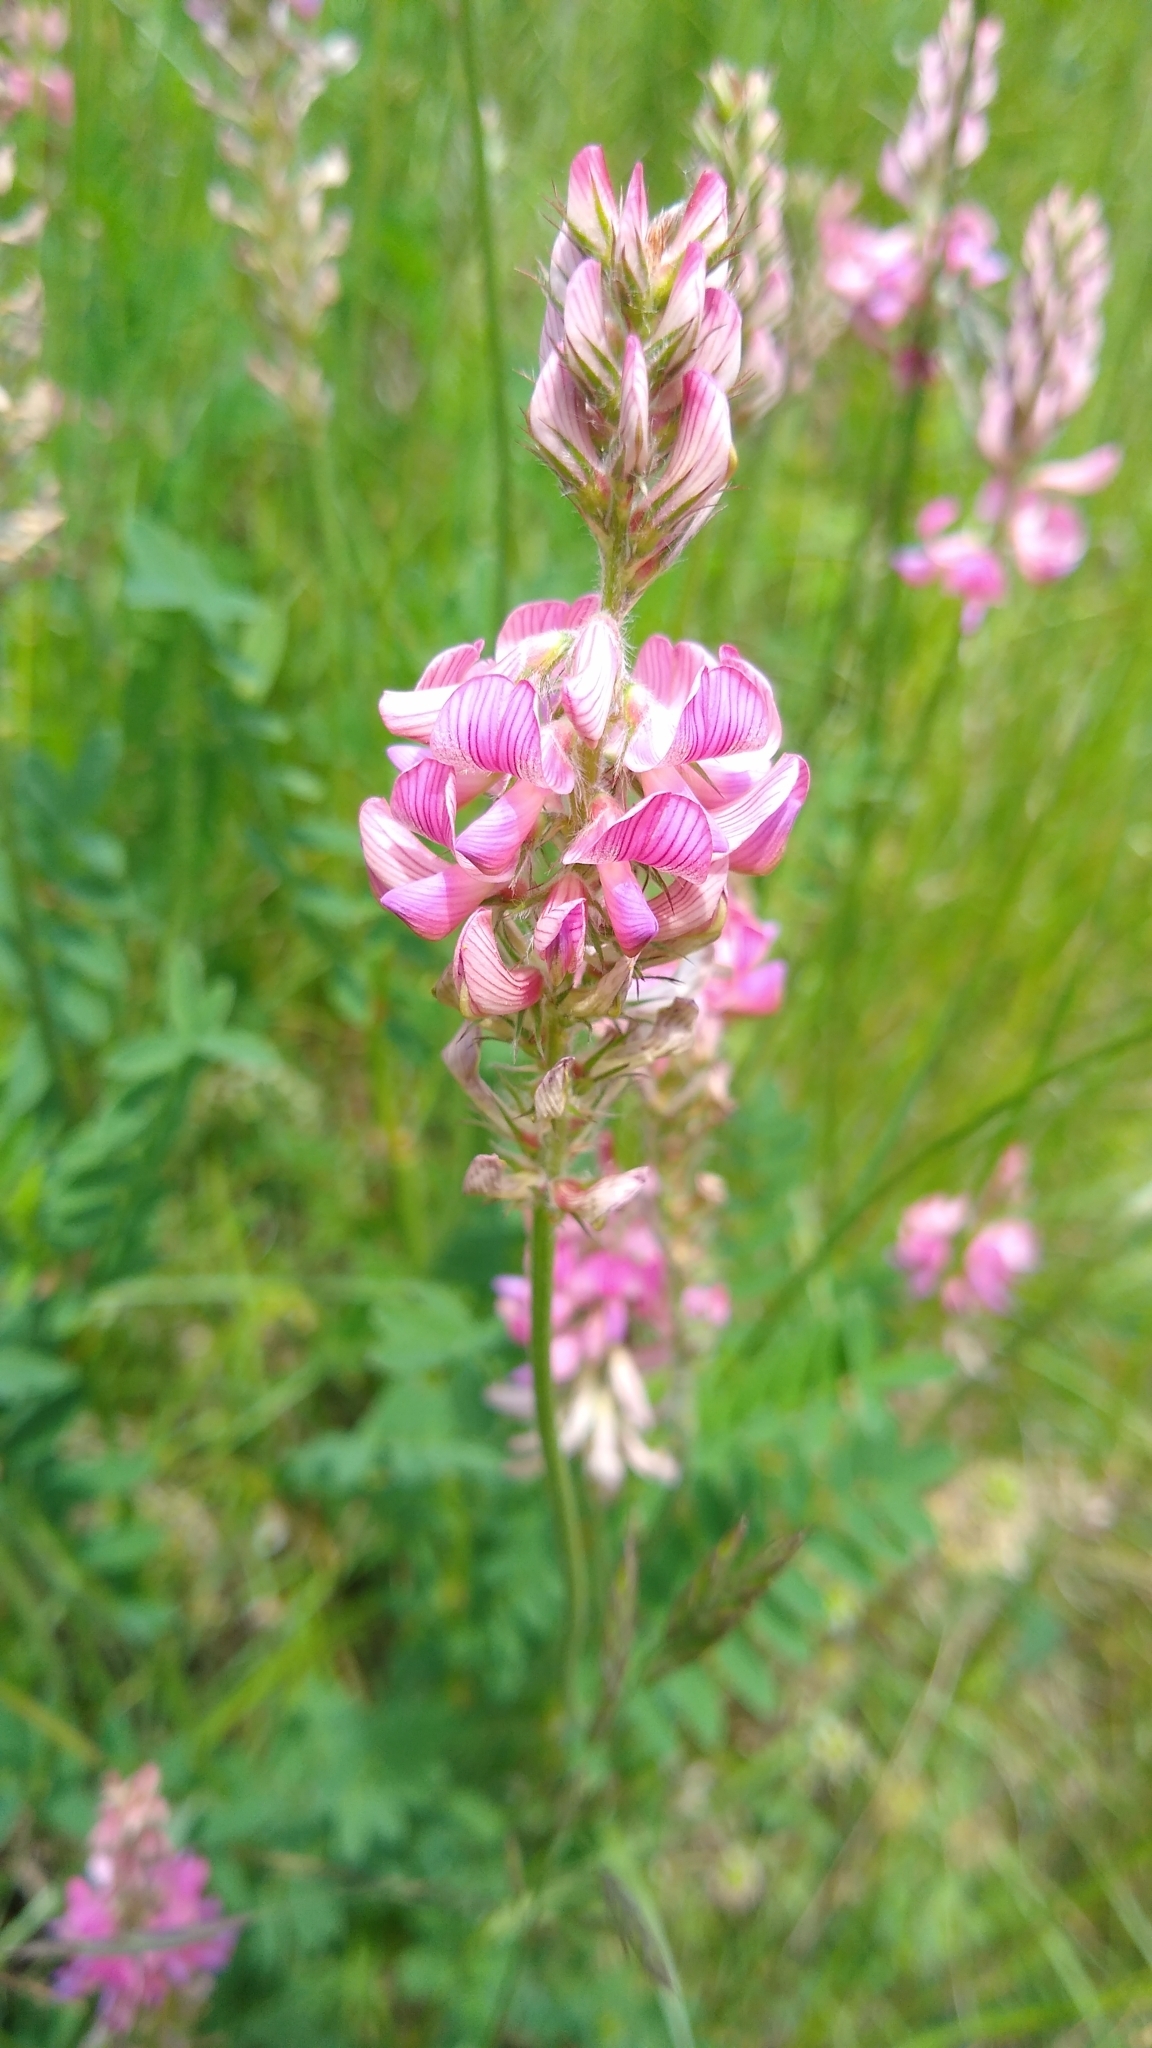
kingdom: Plantae
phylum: Tracheophyta
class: Magnoliopsida
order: Fabales
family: Fabaceae
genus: Onobrychis
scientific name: Onobrychis viciifolia
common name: Sainfoin
